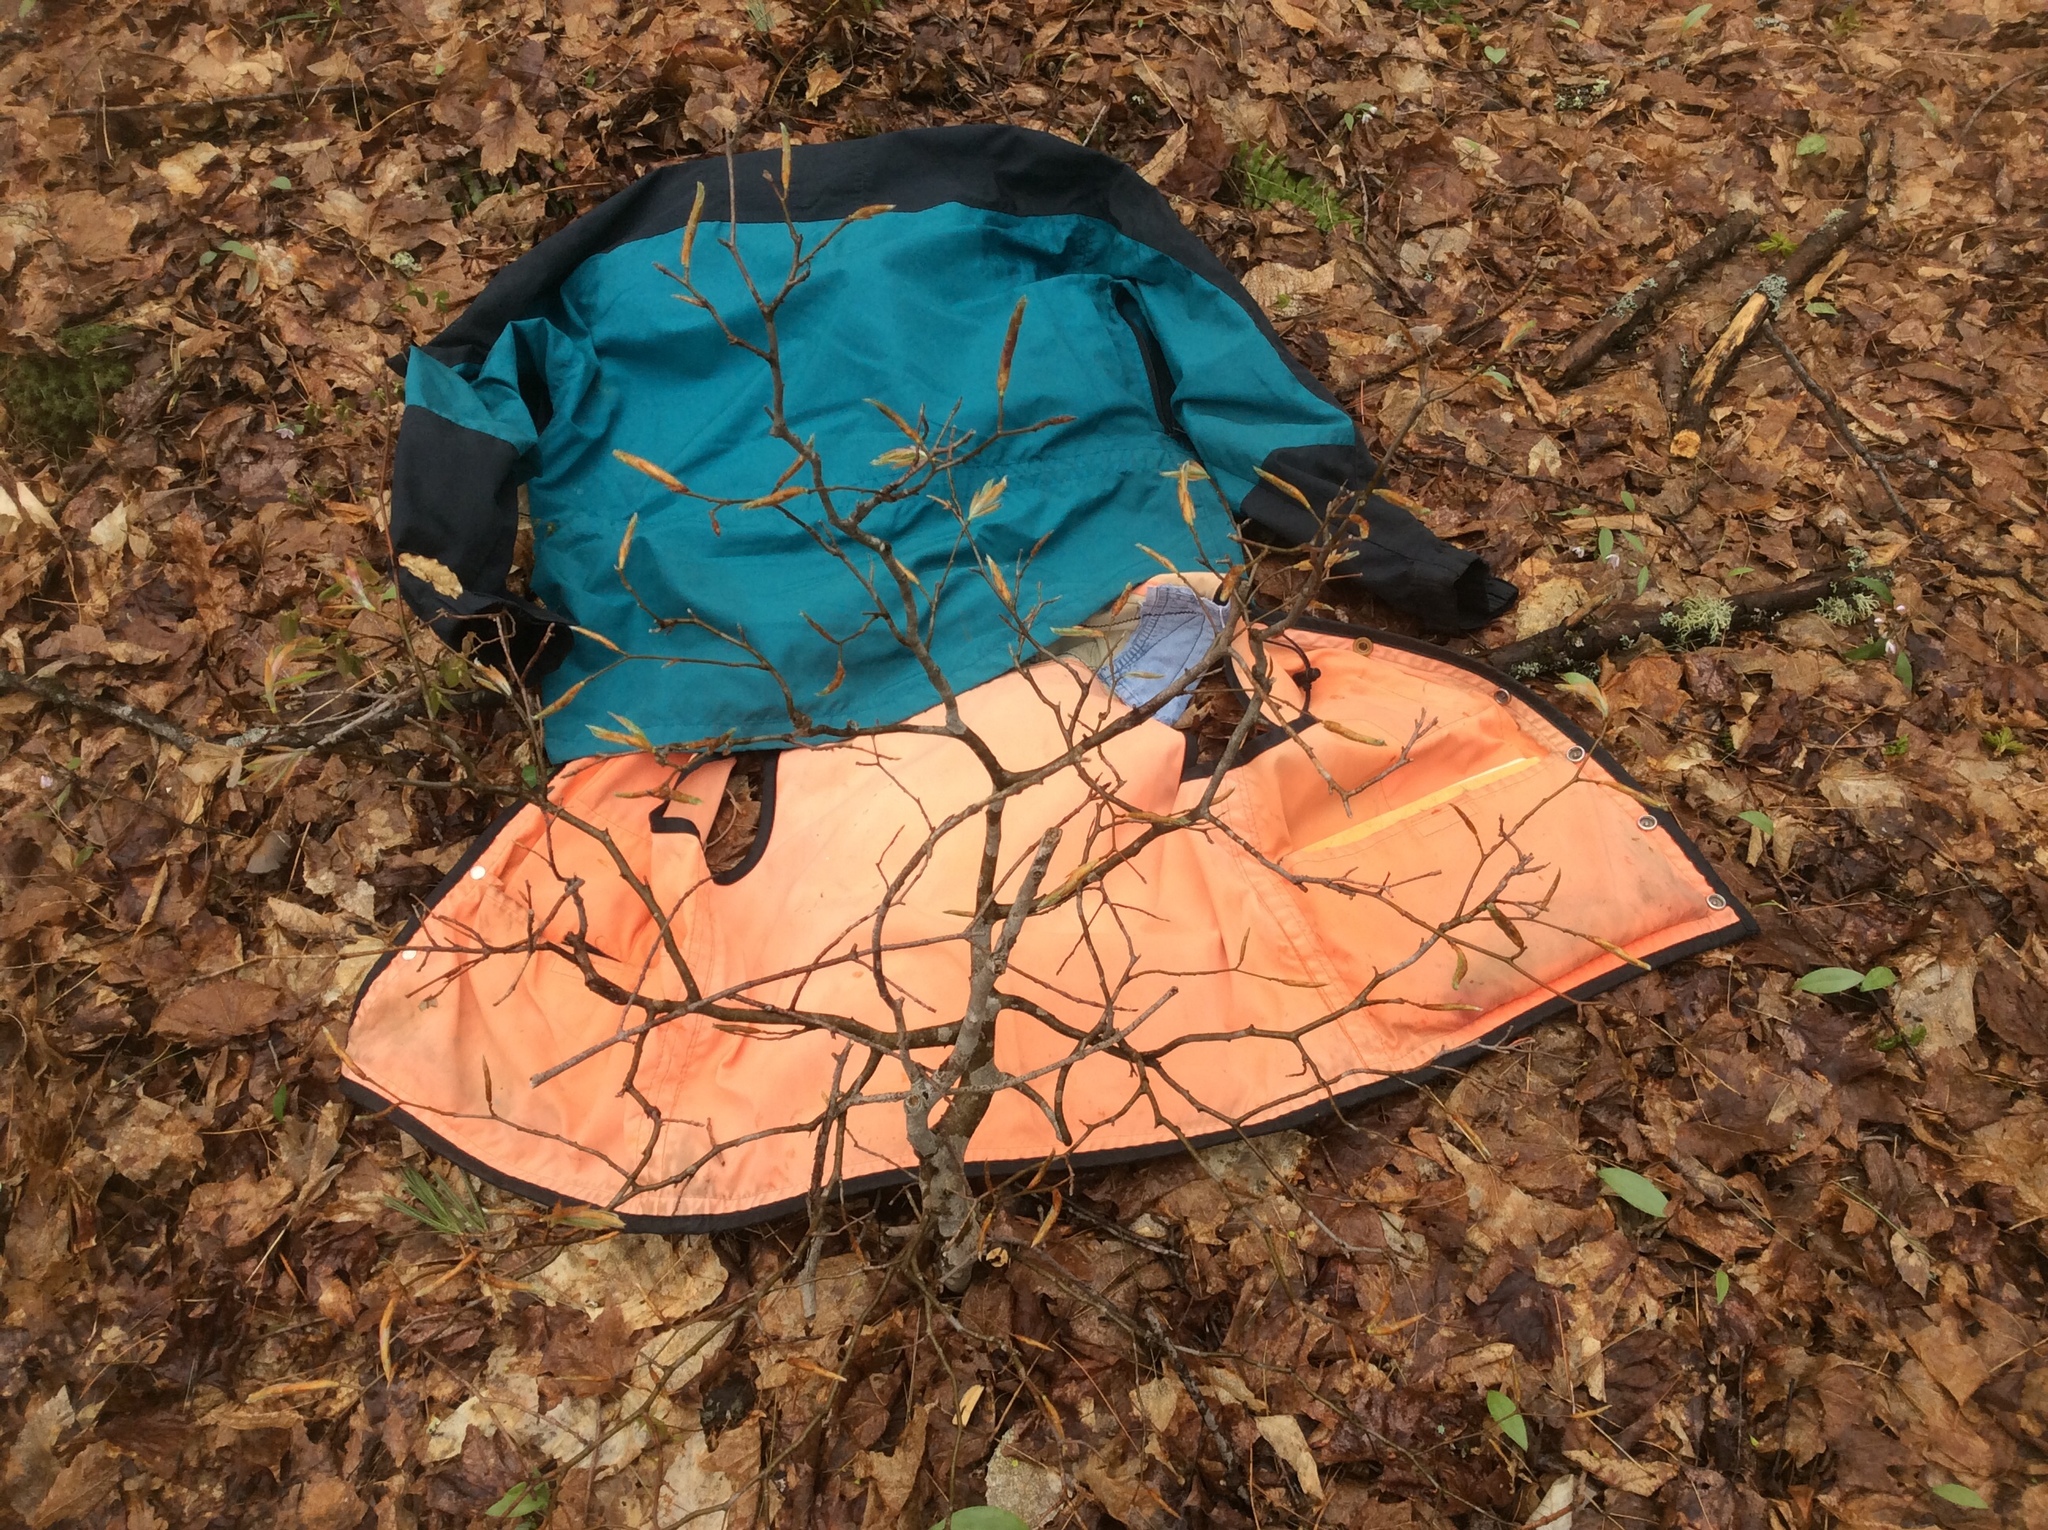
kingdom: Plantae
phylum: Tracheophyta
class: Magnoliopsida
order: Fagales
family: Fagaceae
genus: Fagus
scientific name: Fagus grandifolia
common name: American beech
